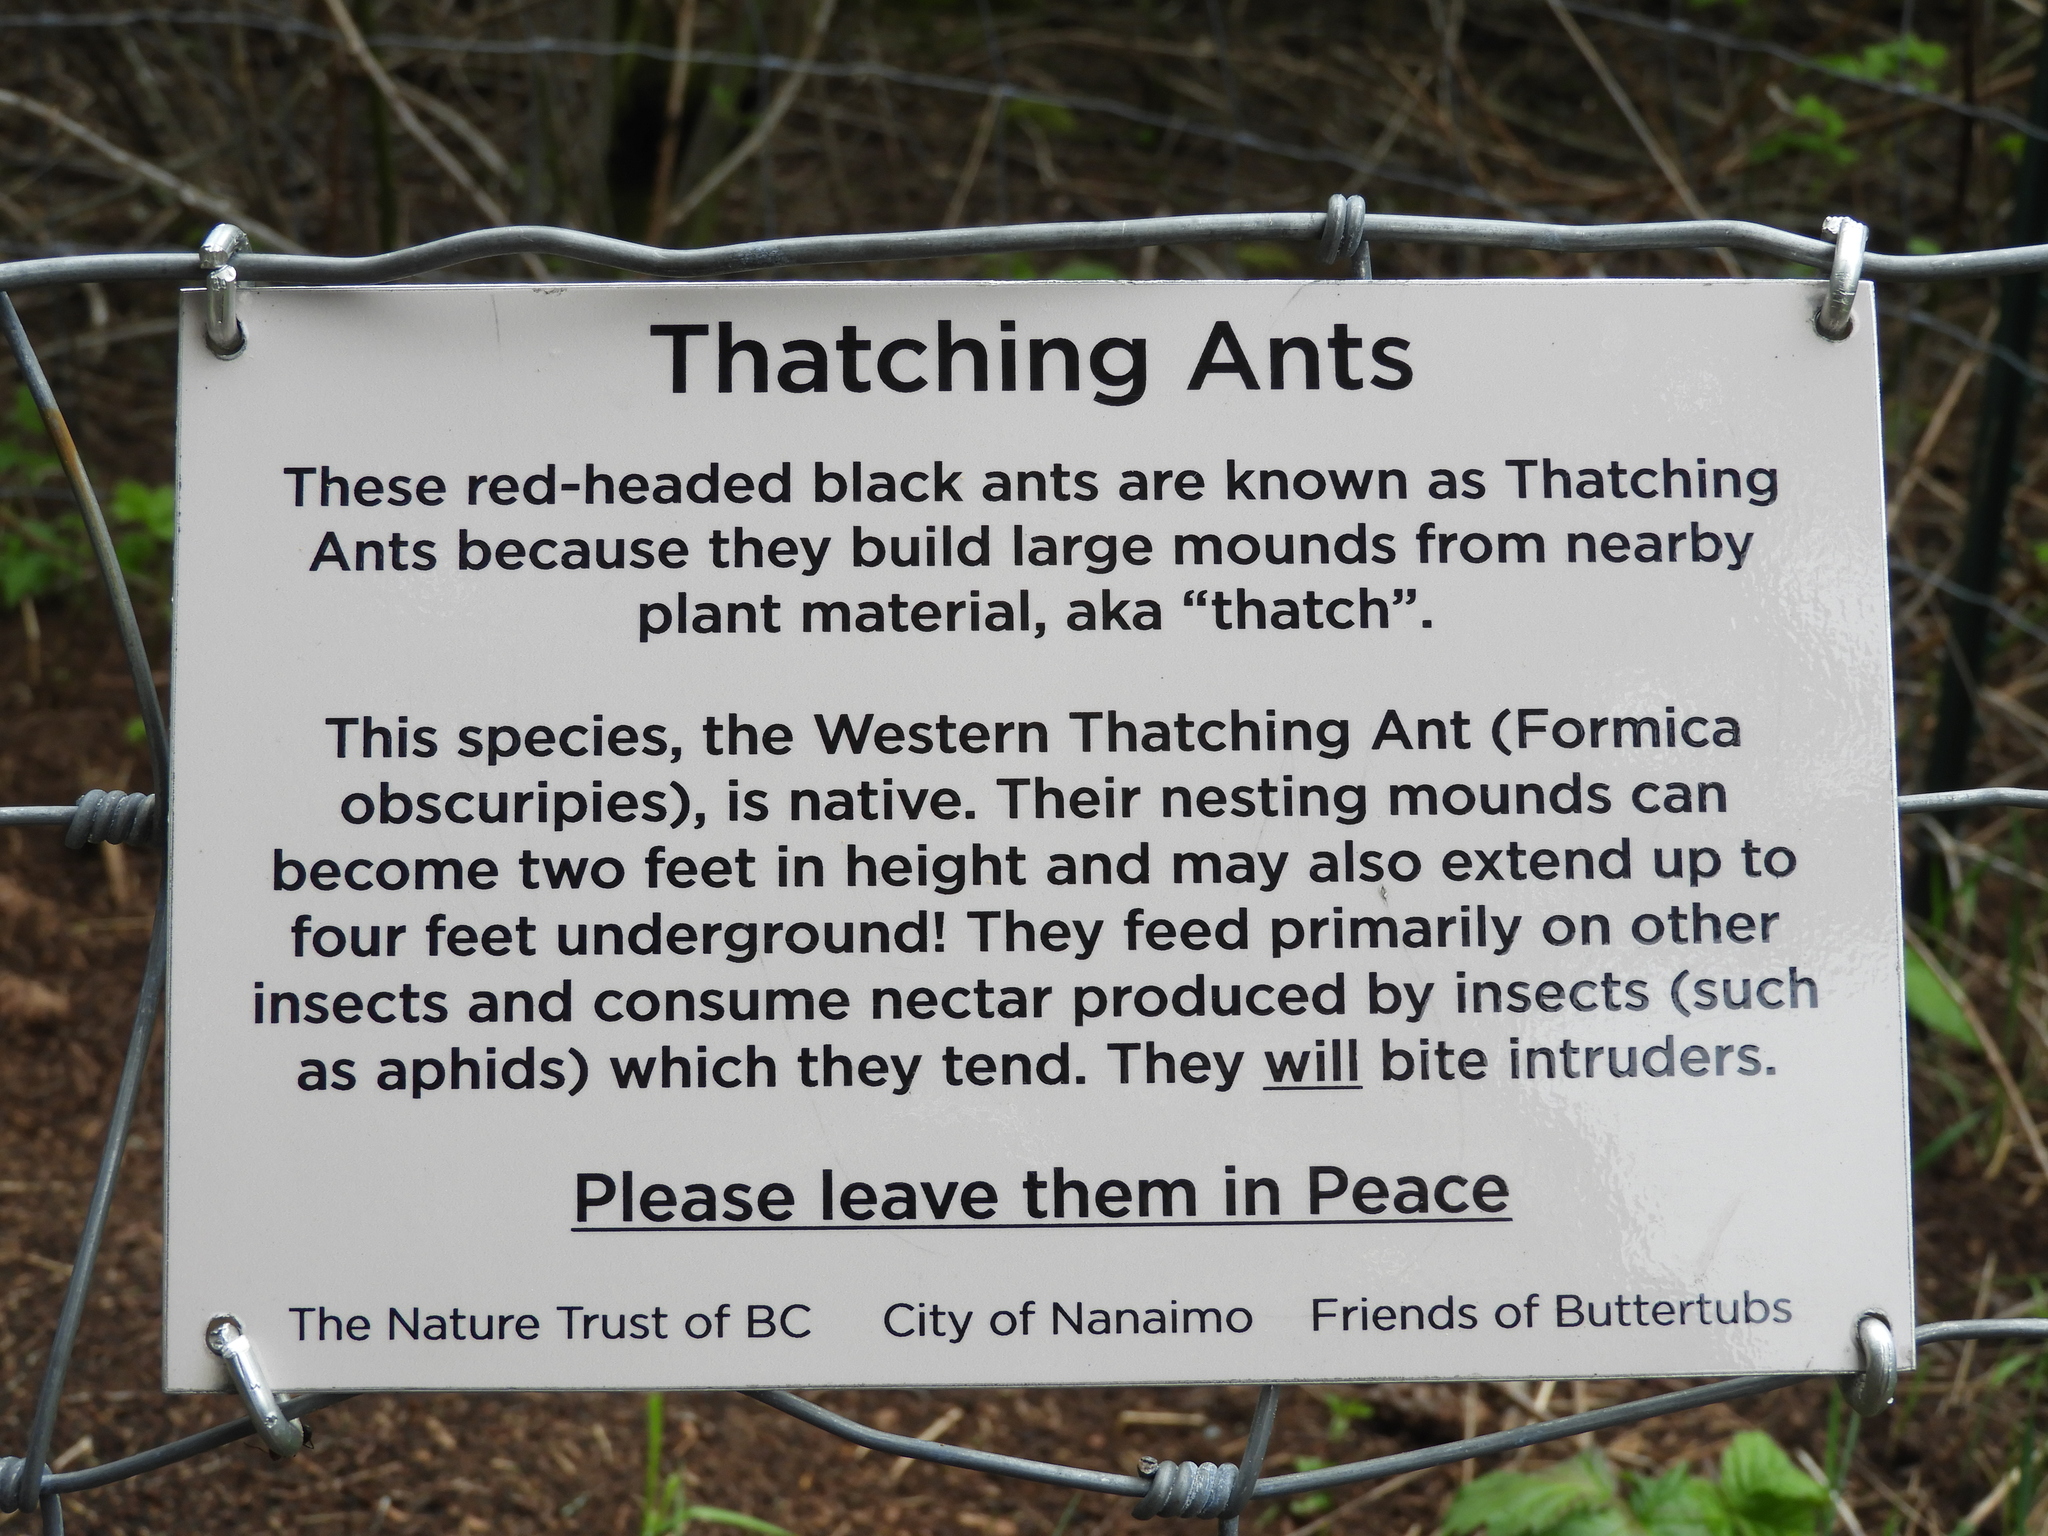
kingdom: Animalia
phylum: Arthropoda
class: Insecta
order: Hymenoptera
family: Formicidae
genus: Formica
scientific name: Formica obscuripes
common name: Western thatching ant
